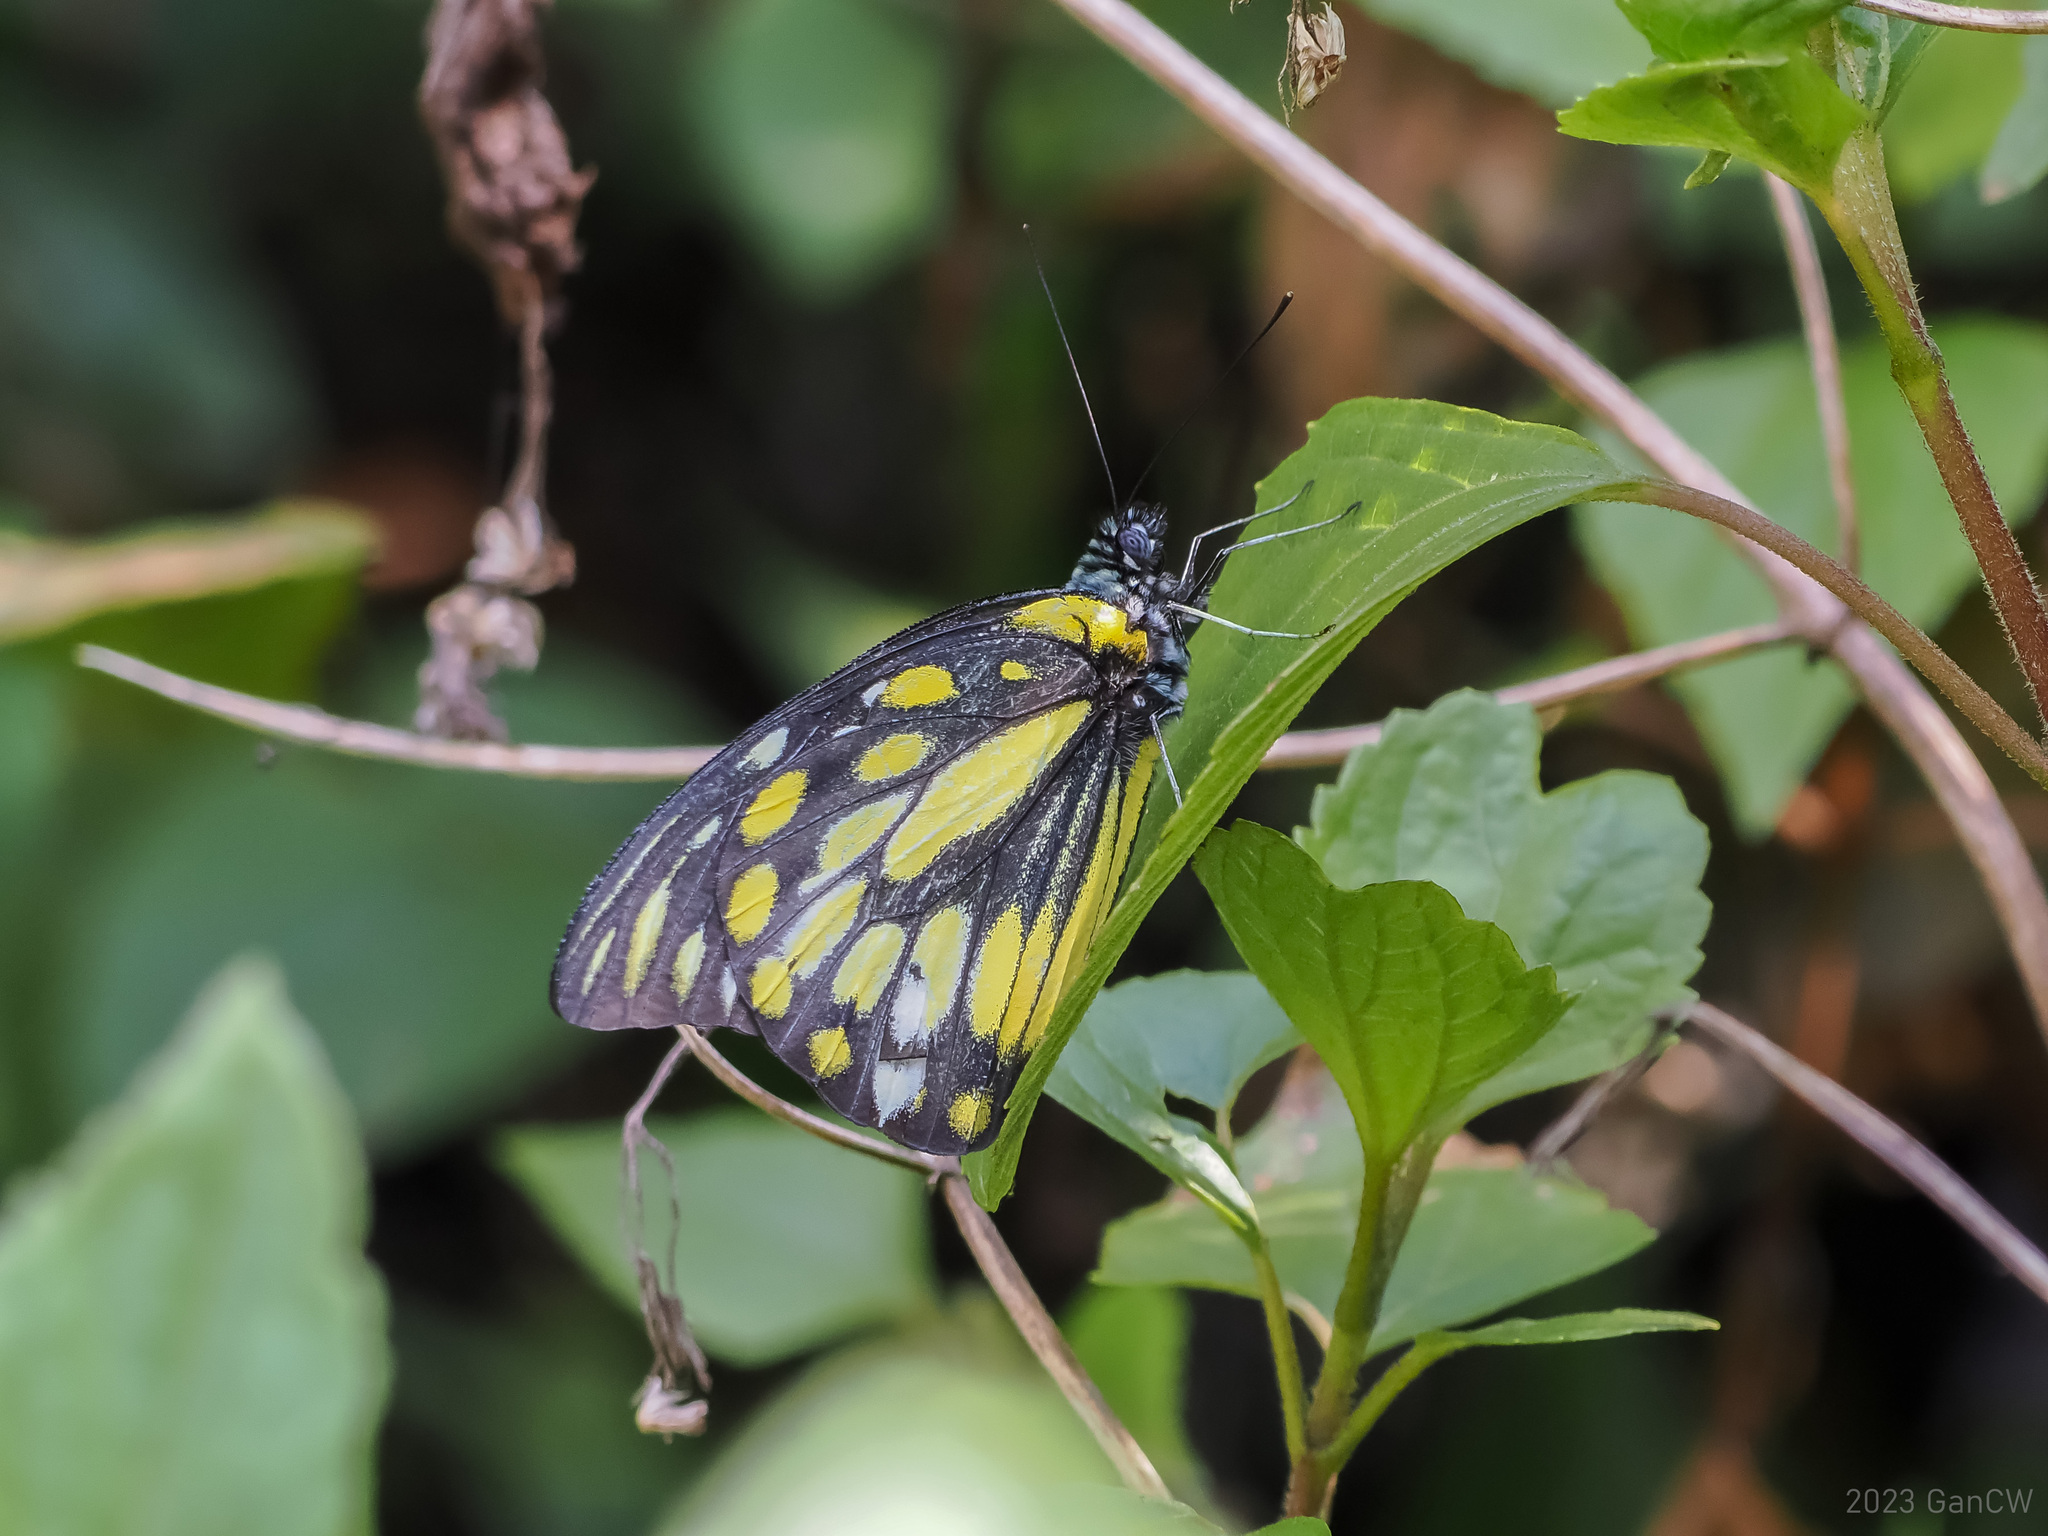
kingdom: Animalia
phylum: Arthropoda
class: Insecta
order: Lepidoptera
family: Pieridae
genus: Prioneris
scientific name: Prioneris thestylis
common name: Spotted sawtooth
